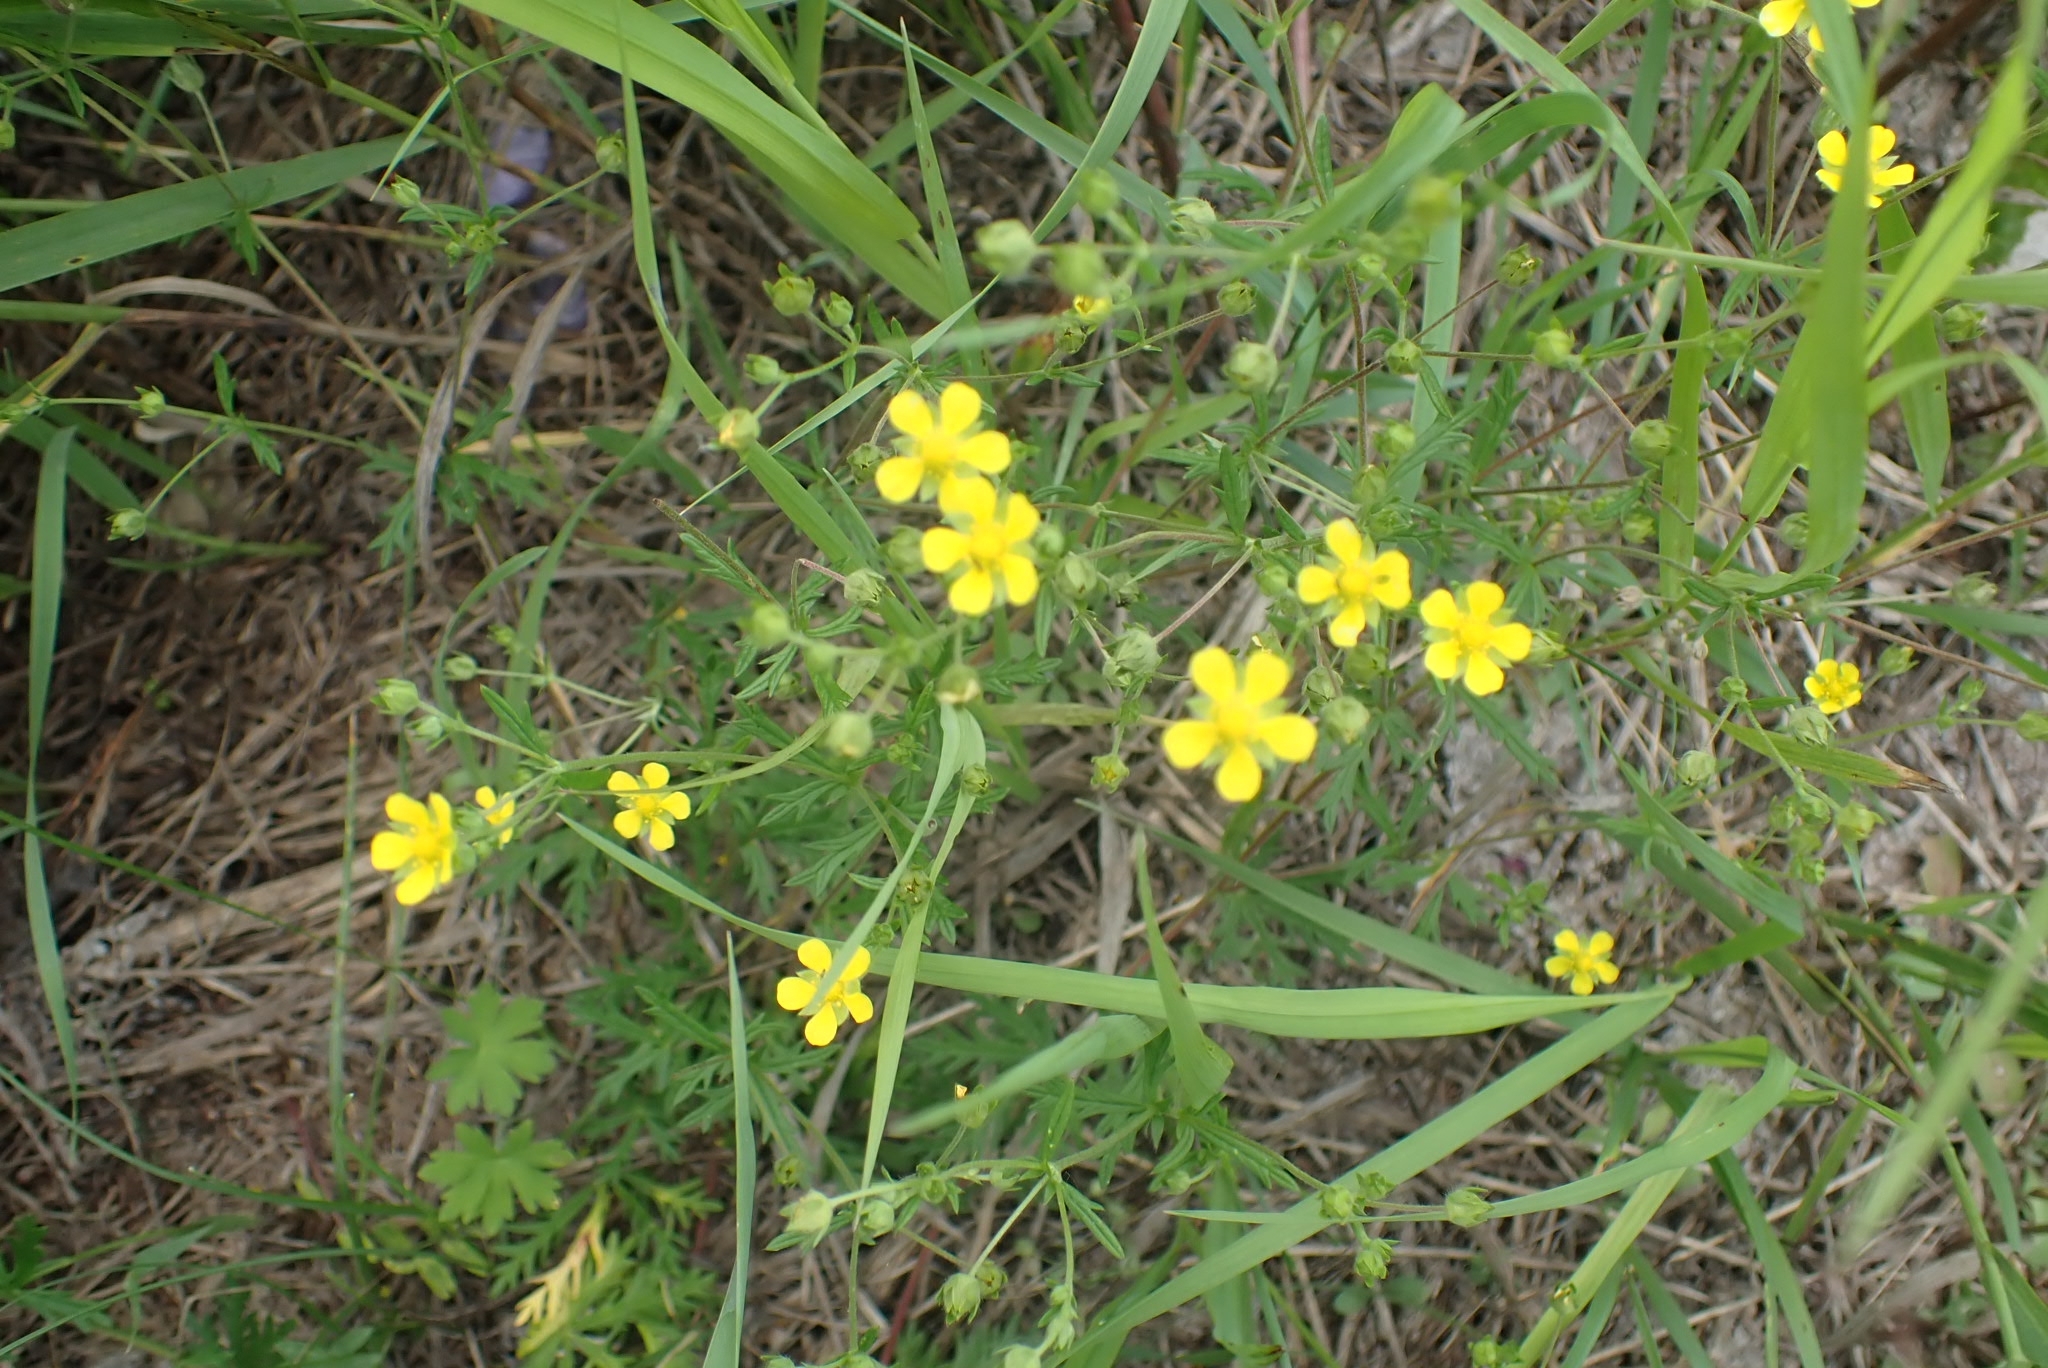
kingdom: Plantae
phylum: Tracheophyta
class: Magnoliopsida
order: Rosales
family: Rosaceae
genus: Potentilla
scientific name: Potentilla argentea
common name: Hoary cinquefoil
